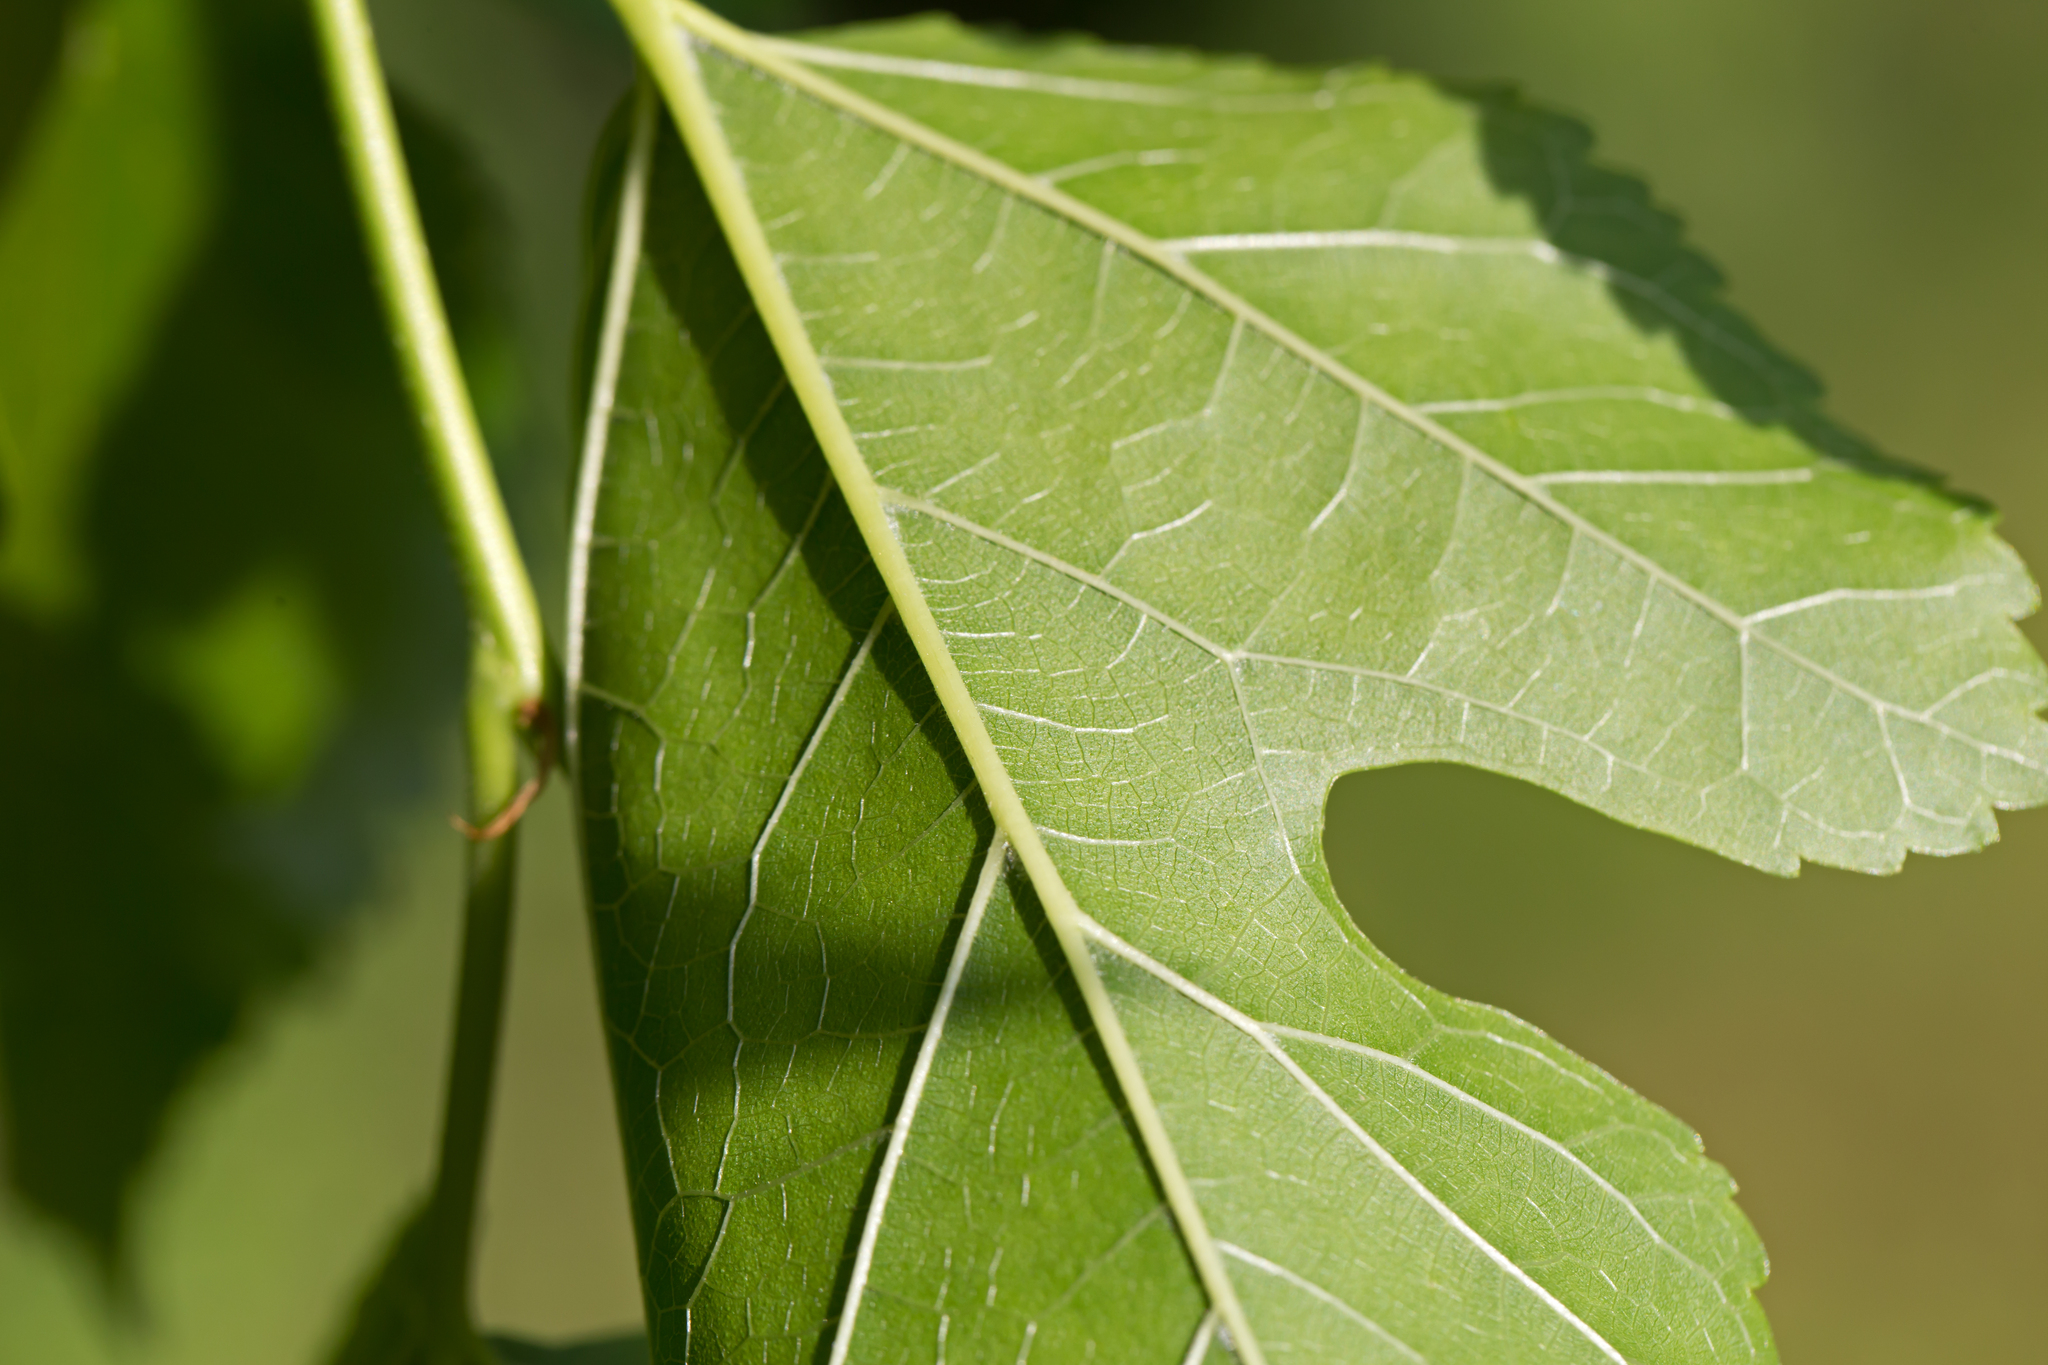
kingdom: Plantae
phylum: Tracheophyta
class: Magnoliopsida
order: Rosales
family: Moraceae
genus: Morus
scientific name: Morus alba
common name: White mulberry
